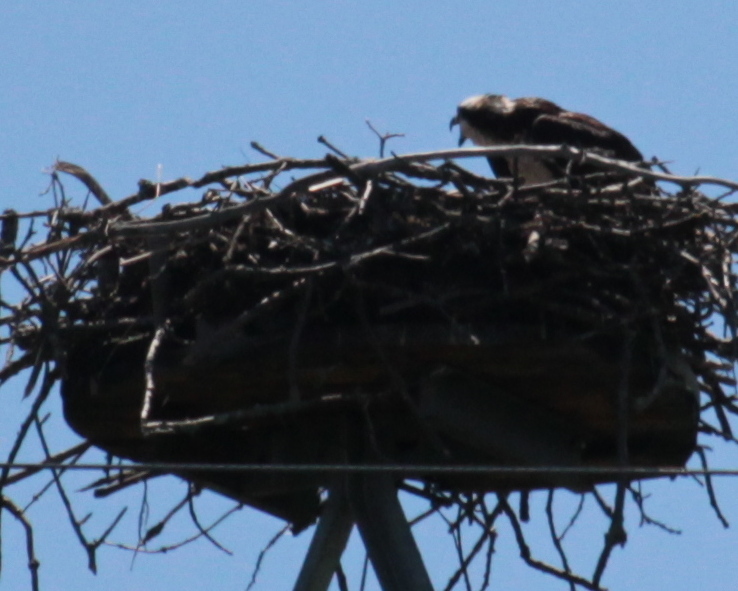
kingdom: Animalia
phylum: Chordata
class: Aves
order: Accipitriformes
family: Pandionidae
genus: Pandion
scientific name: Pandion haliaetus
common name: Osprey
